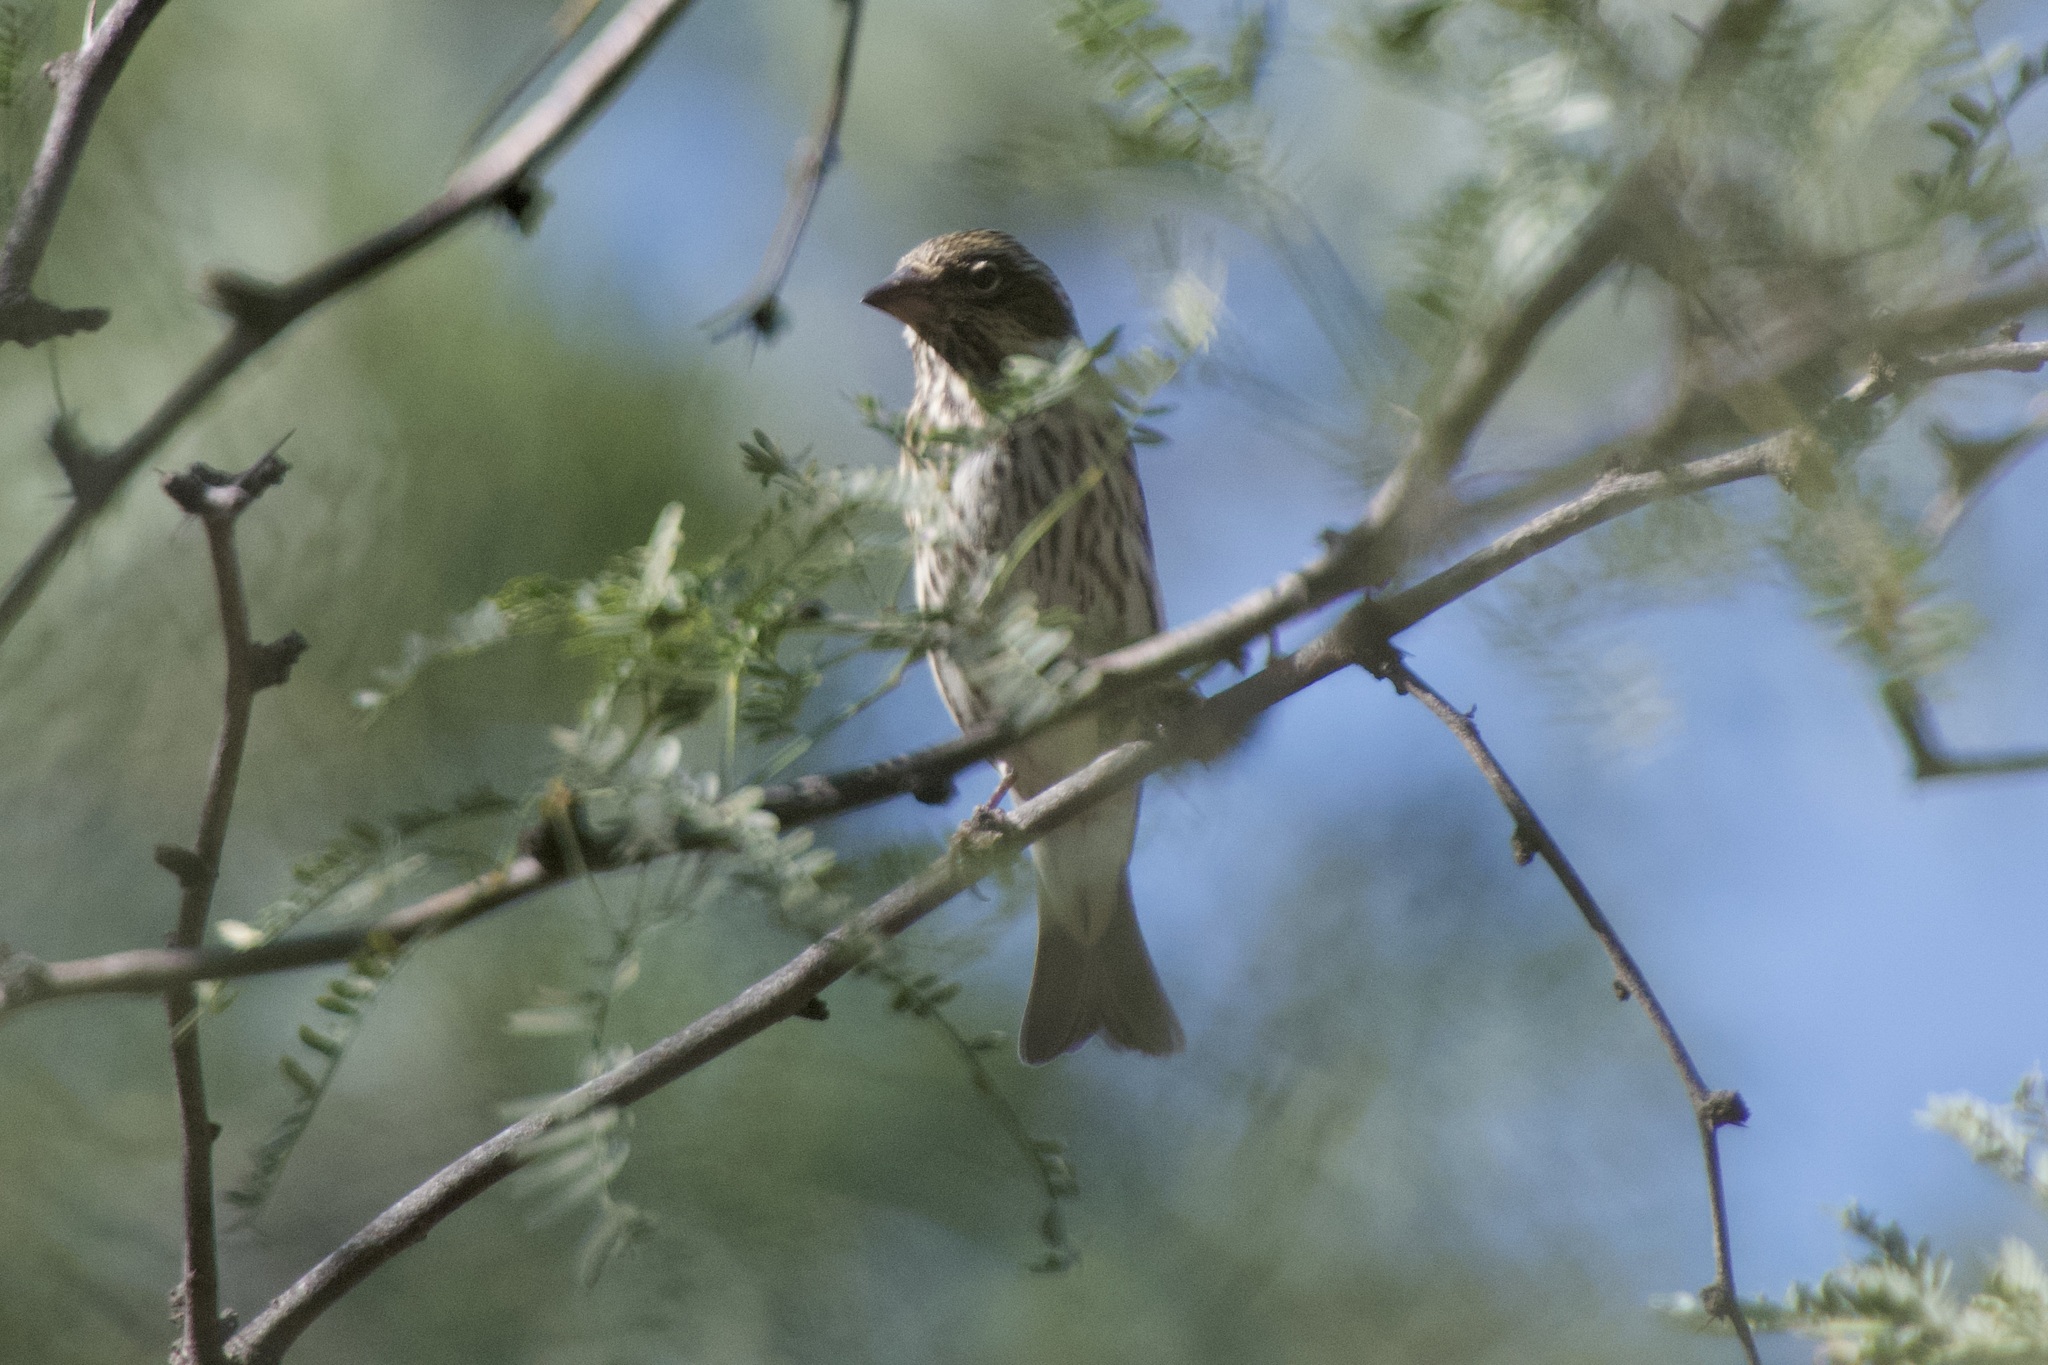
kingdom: Animalia
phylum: Chordata
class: Aves
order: Passeriformes
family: Fringillidae
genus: Haemorhous
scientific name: Haemorhous cassinii
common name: Cassin's finch
